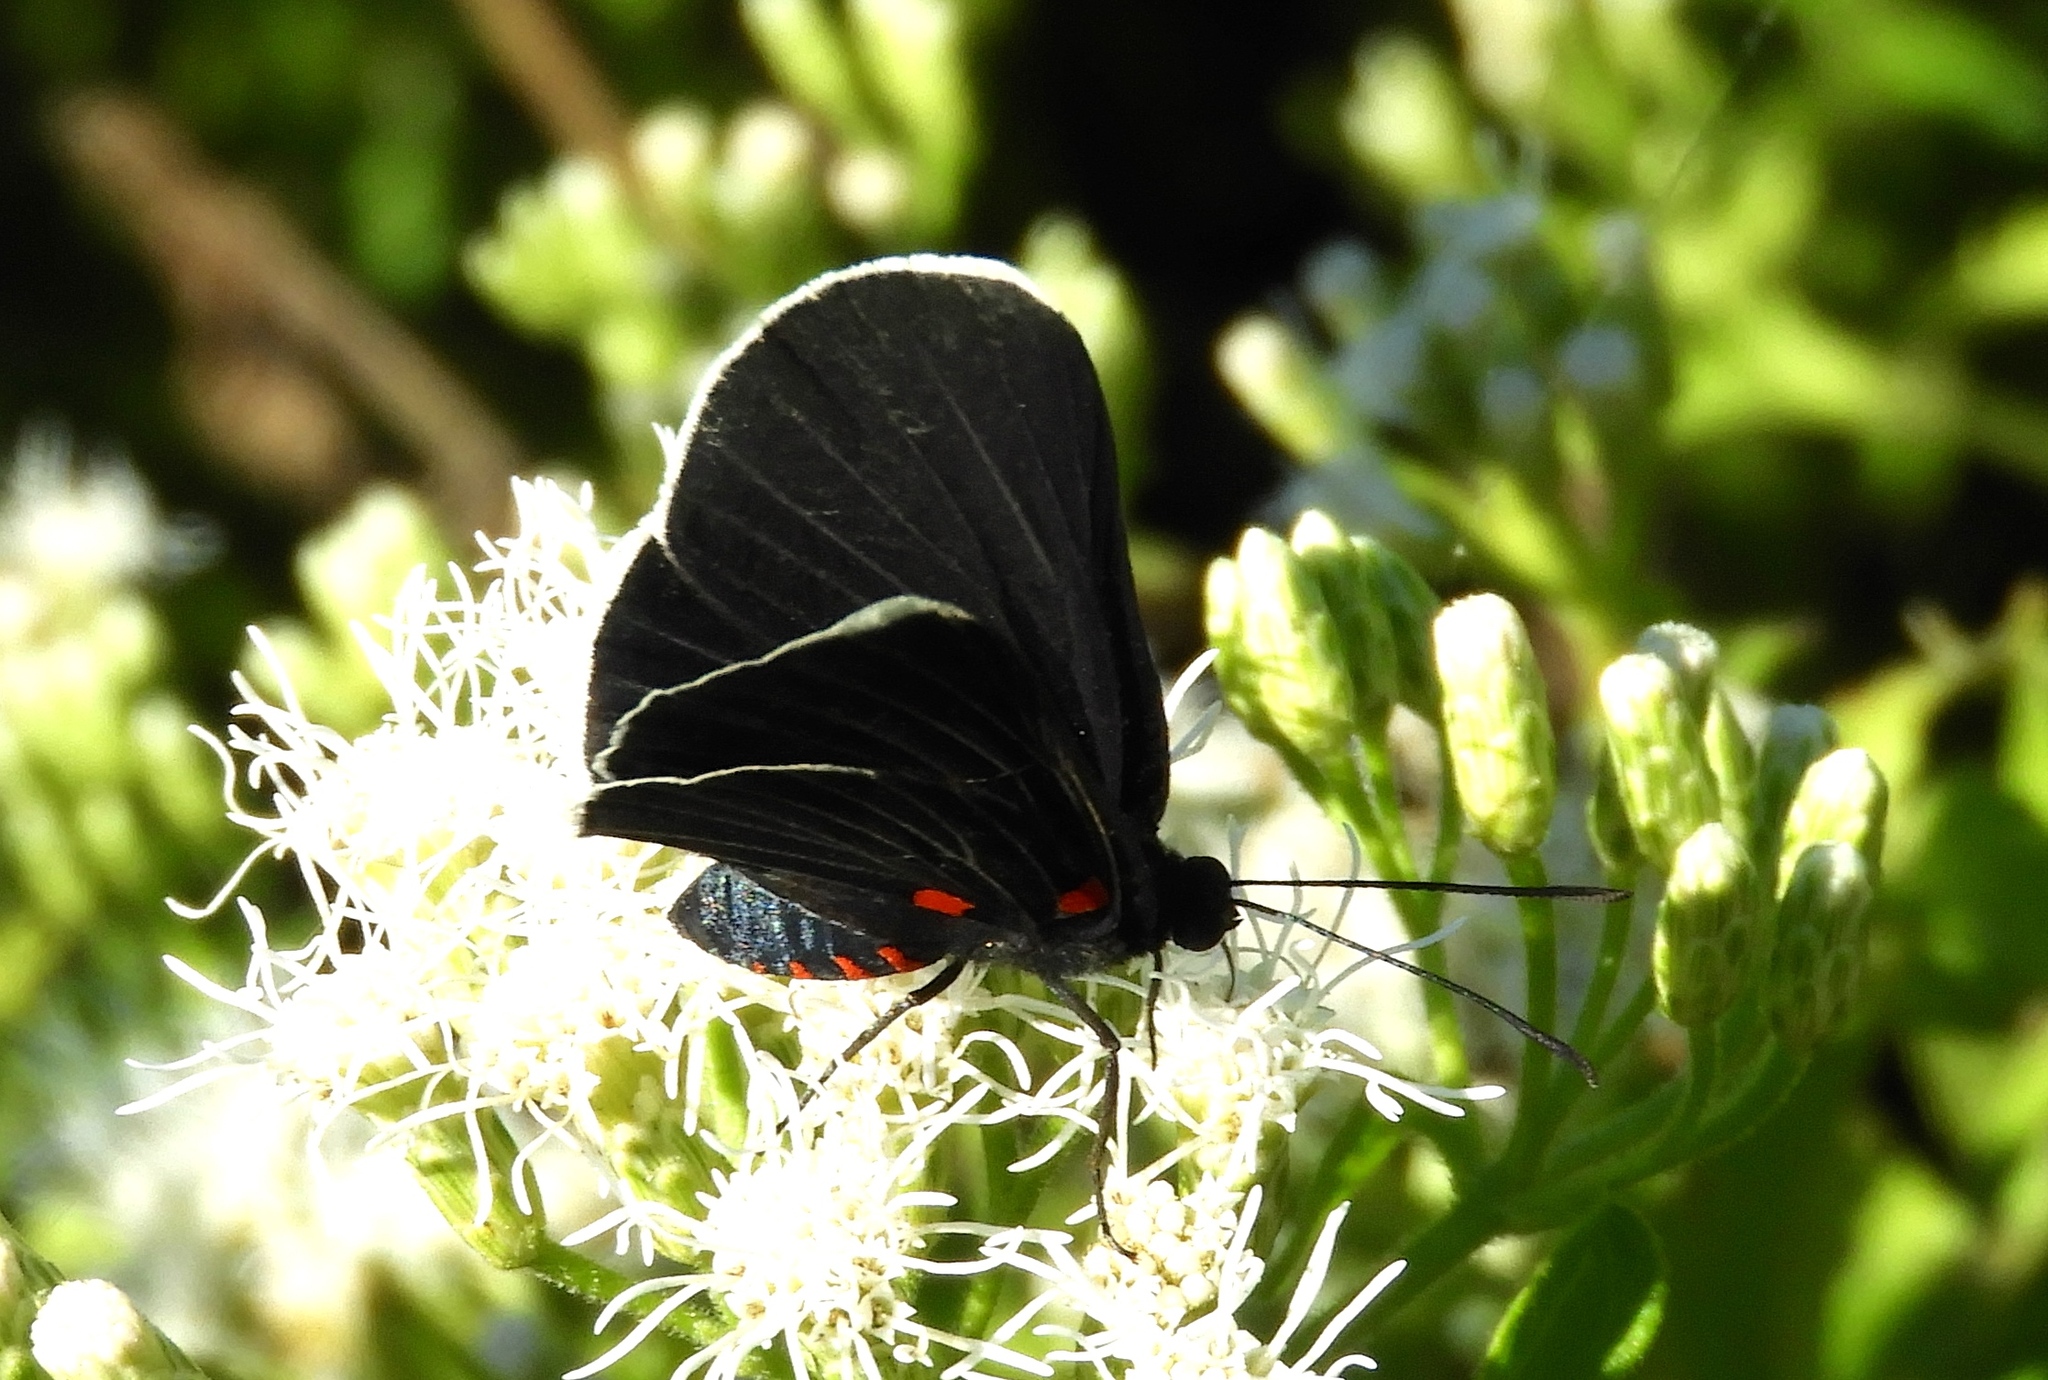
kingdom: Animalia
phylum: Arthropoda
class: Insecta
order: Lepidoptera
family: Lycaenidae
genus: Melanis
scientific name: Melanis
